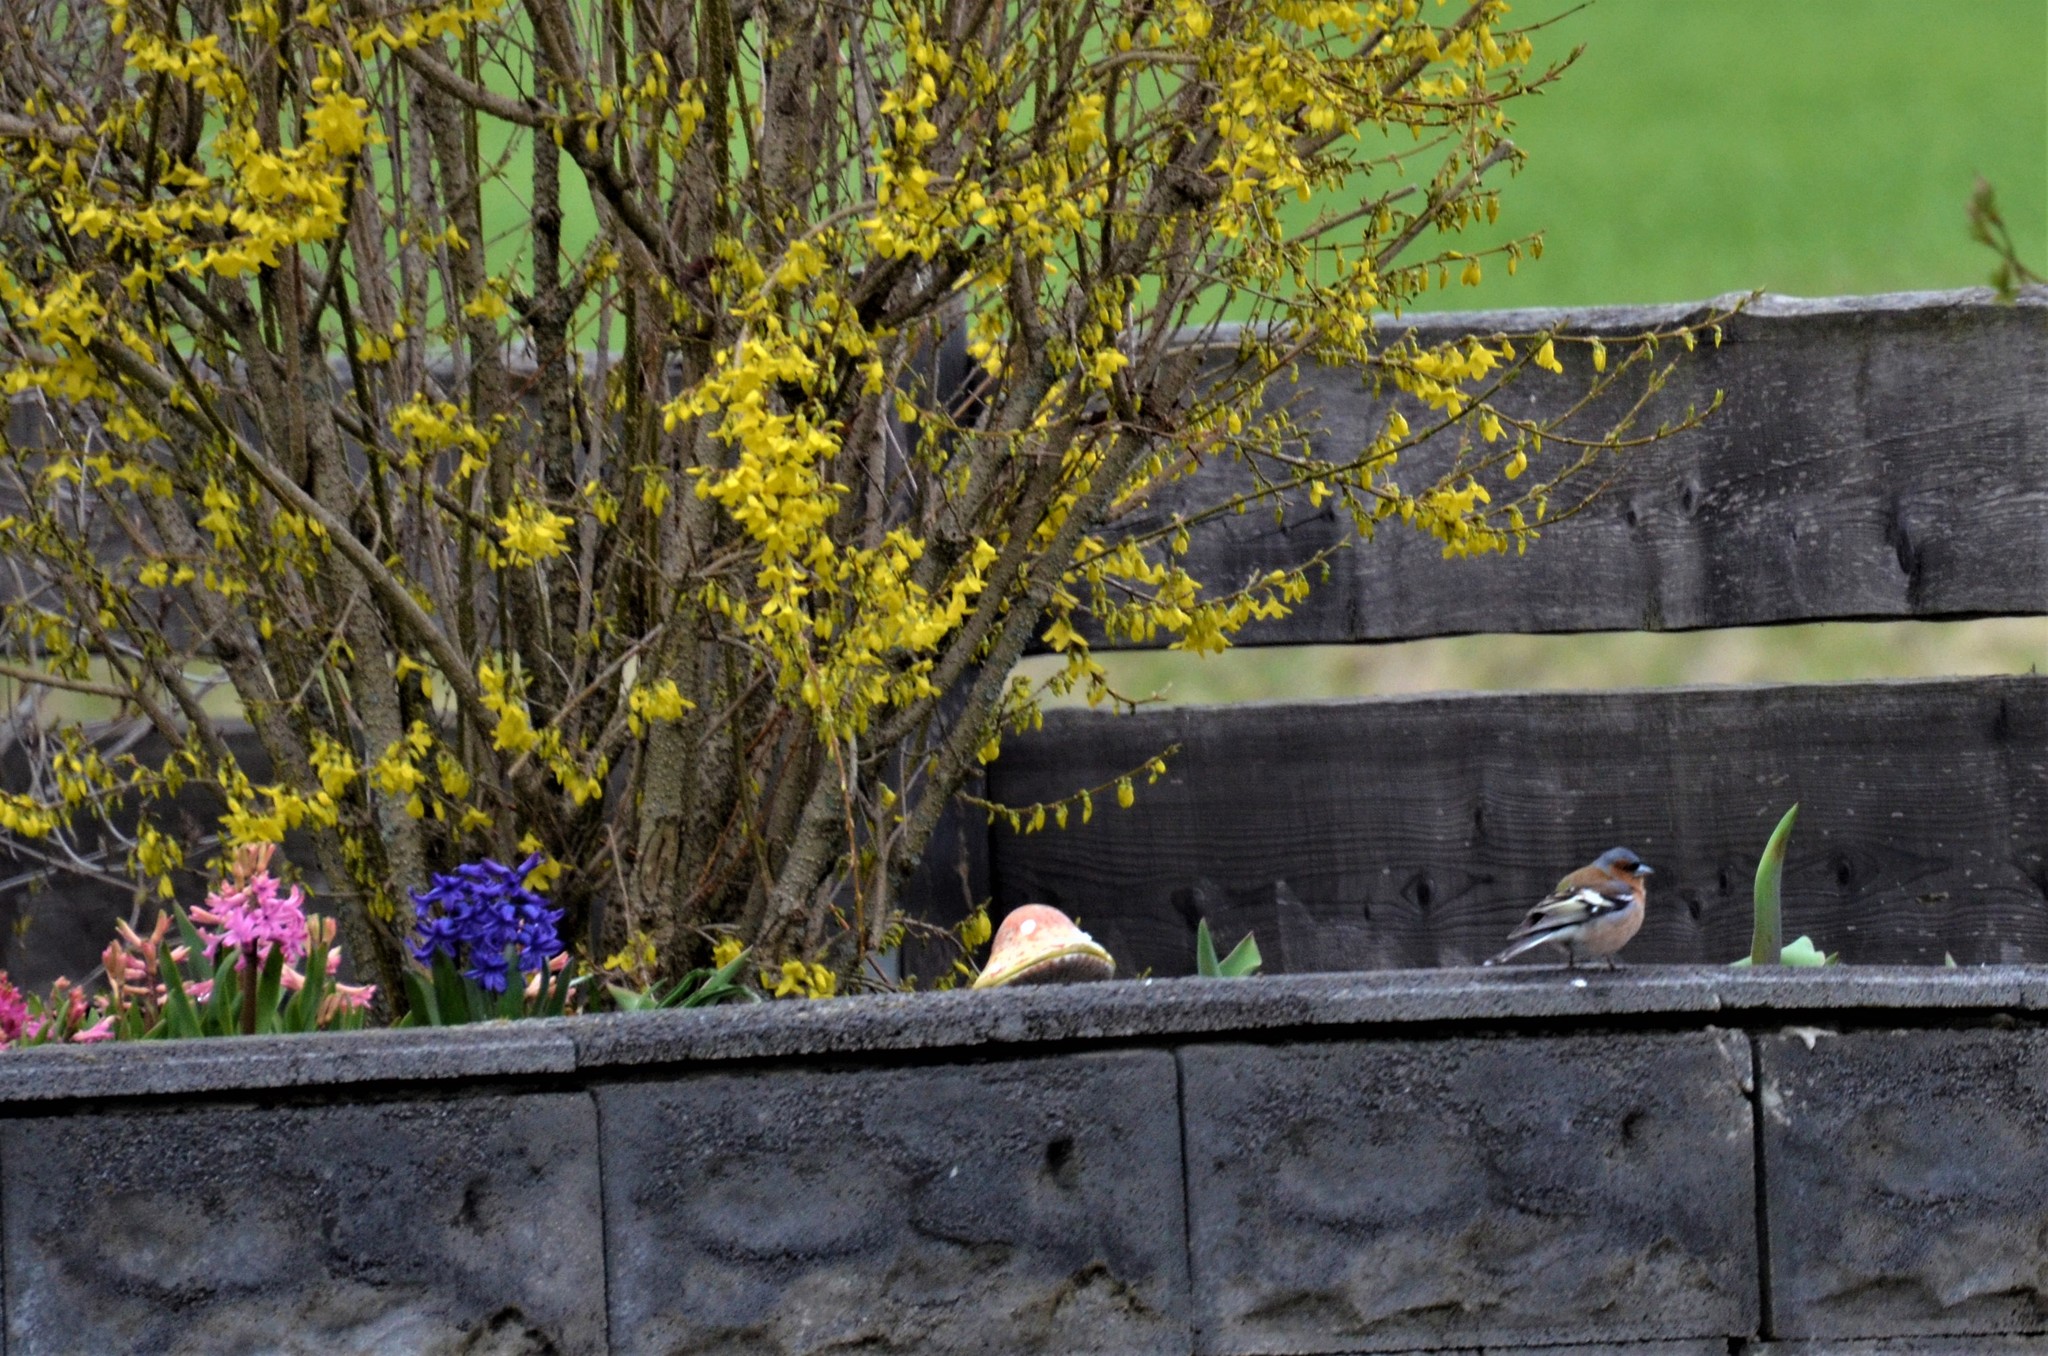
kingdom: Animalia
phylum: Chordata
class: Aves
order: Passeriformes
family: Fringillidae
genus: Fringilla
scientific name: Fringilla coelebs
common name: Common chaffinch
